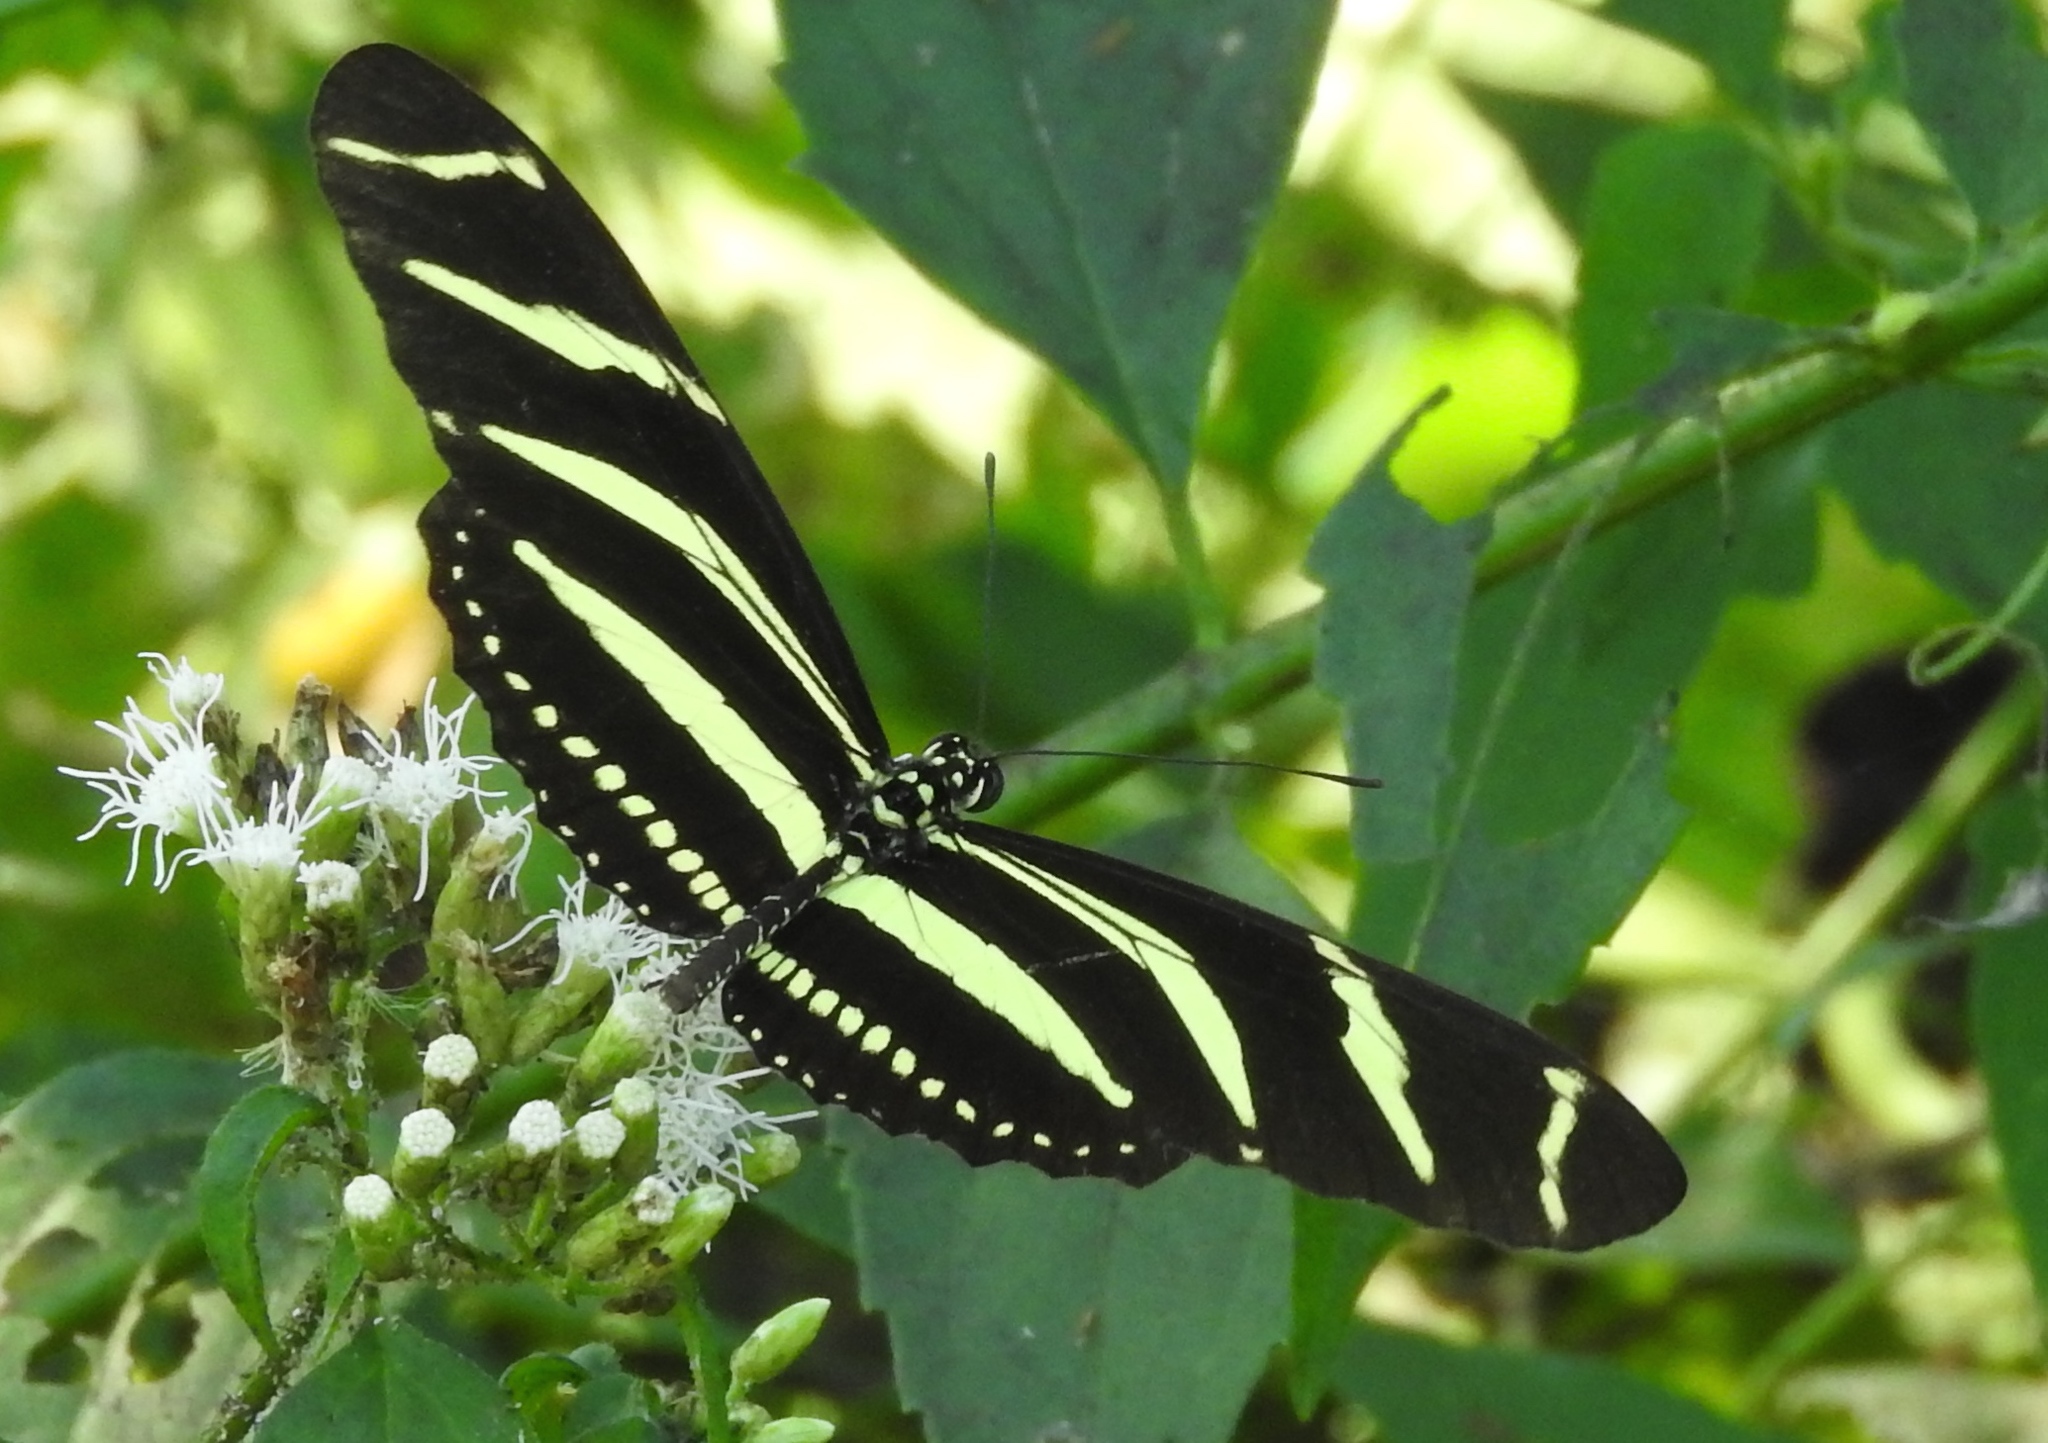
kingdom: Animalia
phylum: Arthropoda
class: Insecta
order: Lepidoptera
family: Nymphalidae
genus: Heliconius
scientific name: Heliconius charithonia
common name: Zebra long wing
